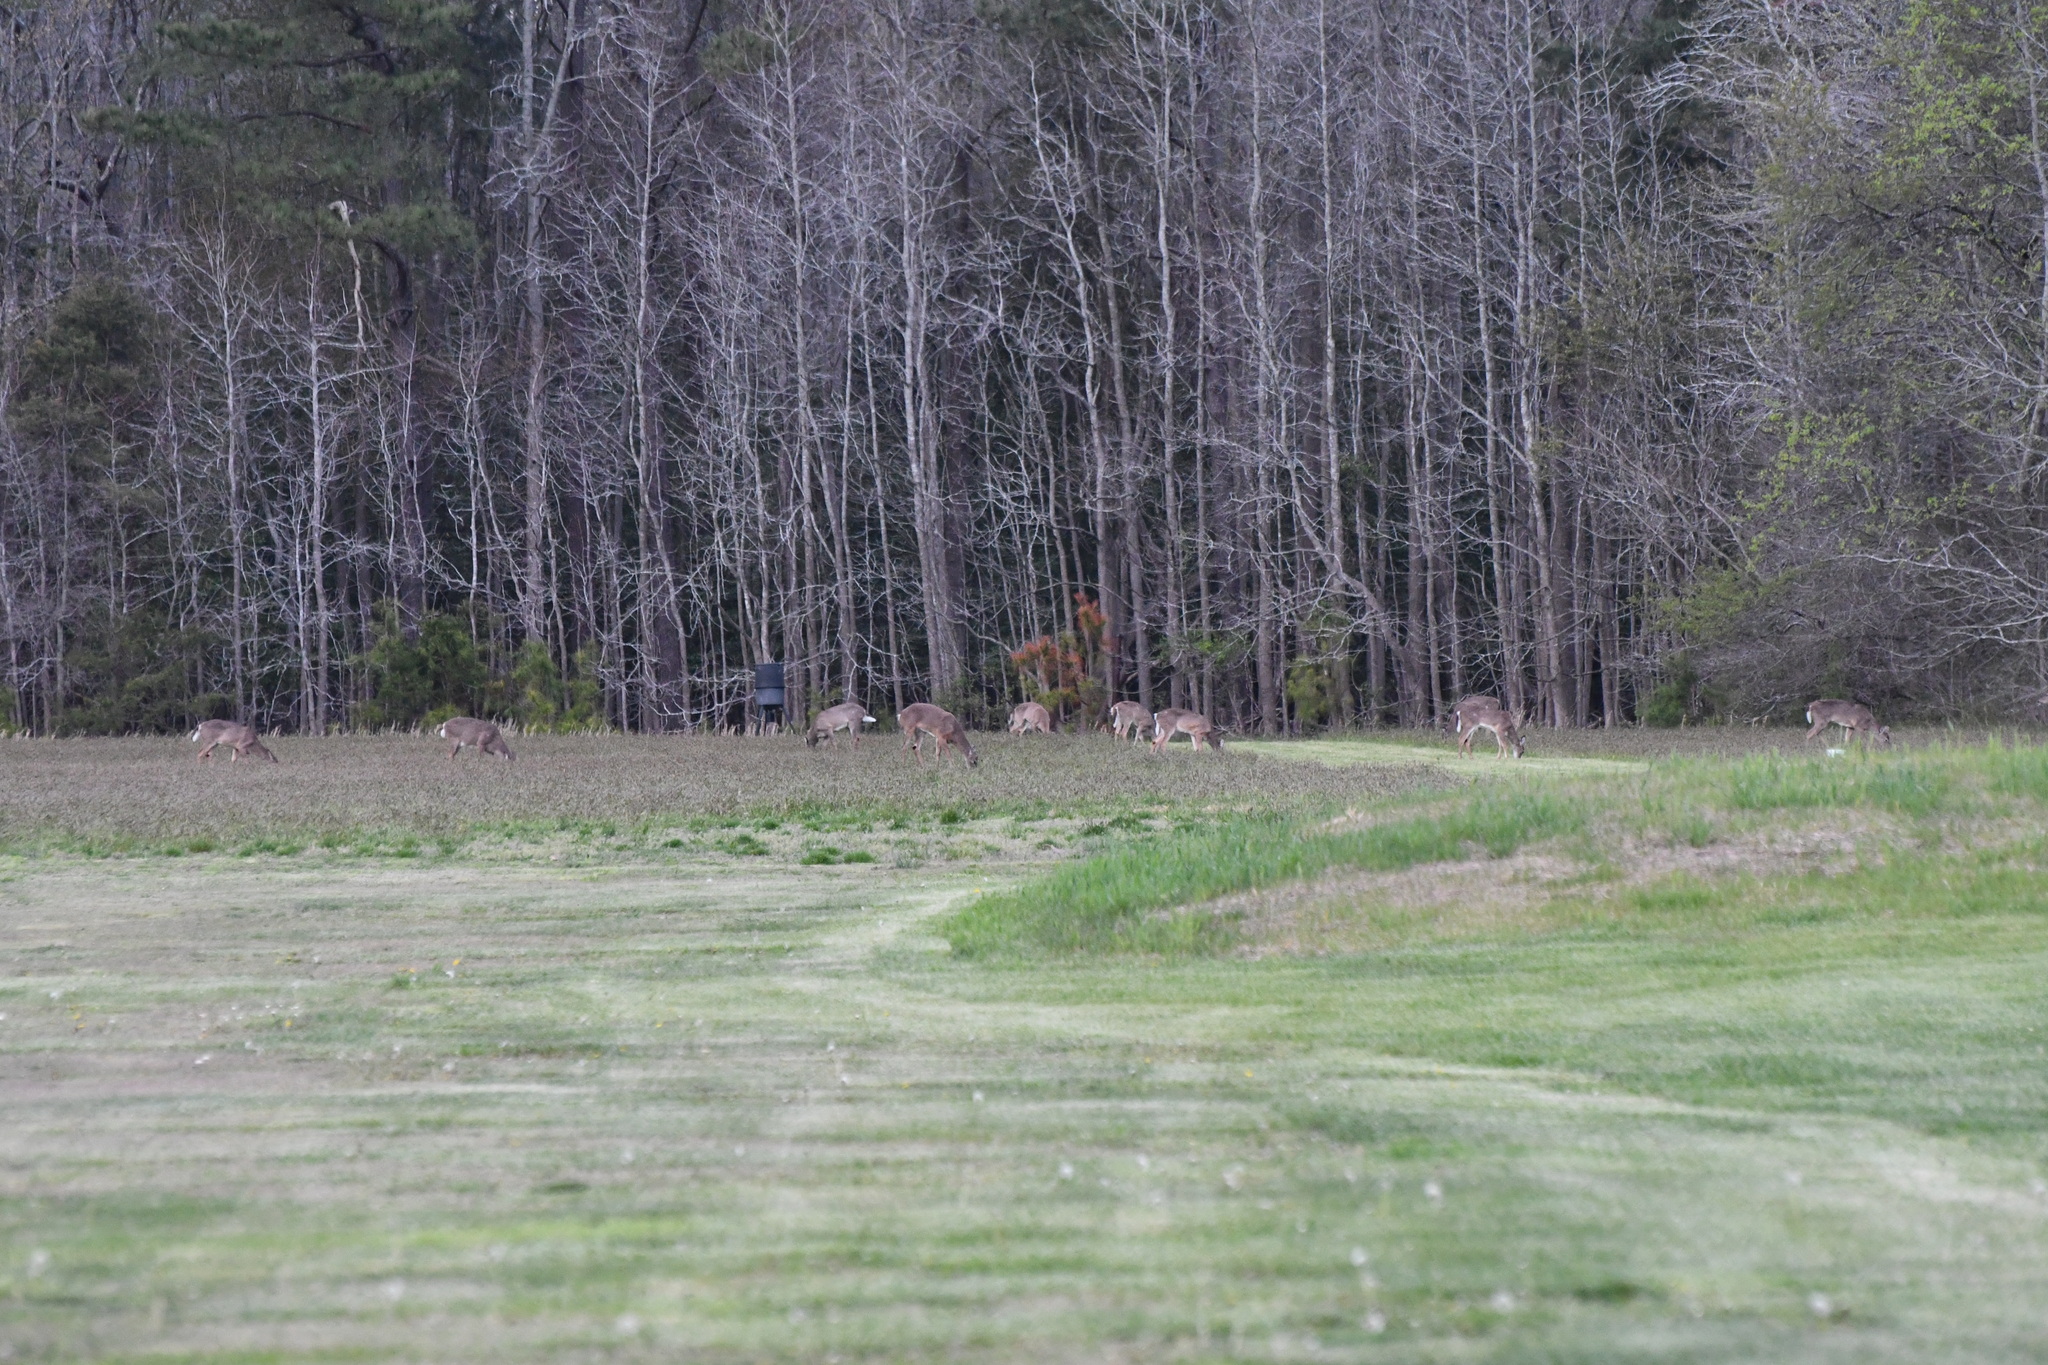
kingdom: Animalia
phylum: Chordata
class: Mammalia
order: Artiodactyla
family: Cervidae
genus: Odocoileus
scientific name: Odocoileus virginianus
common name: White-tailed deer
